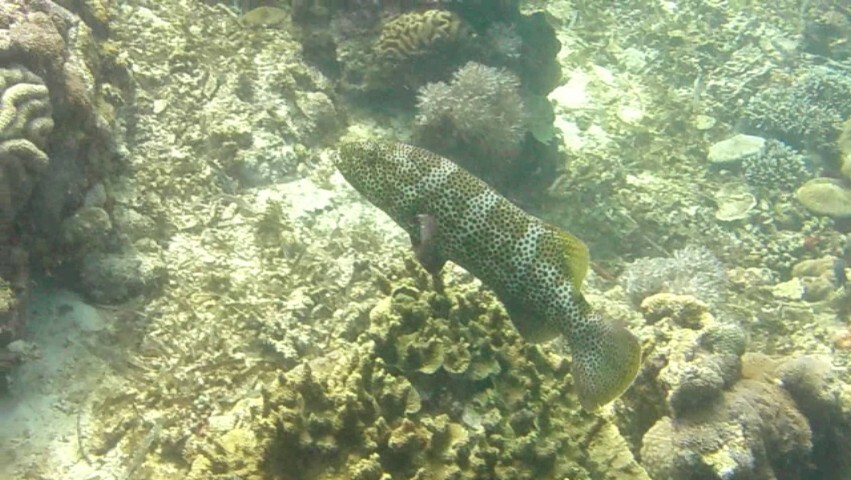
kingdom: Animalia
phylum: Chordata
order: Perciformes
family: Serranidae
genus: Plectropomus
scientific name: Plectropomus areolatus
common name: Squaretail coralgrouper
